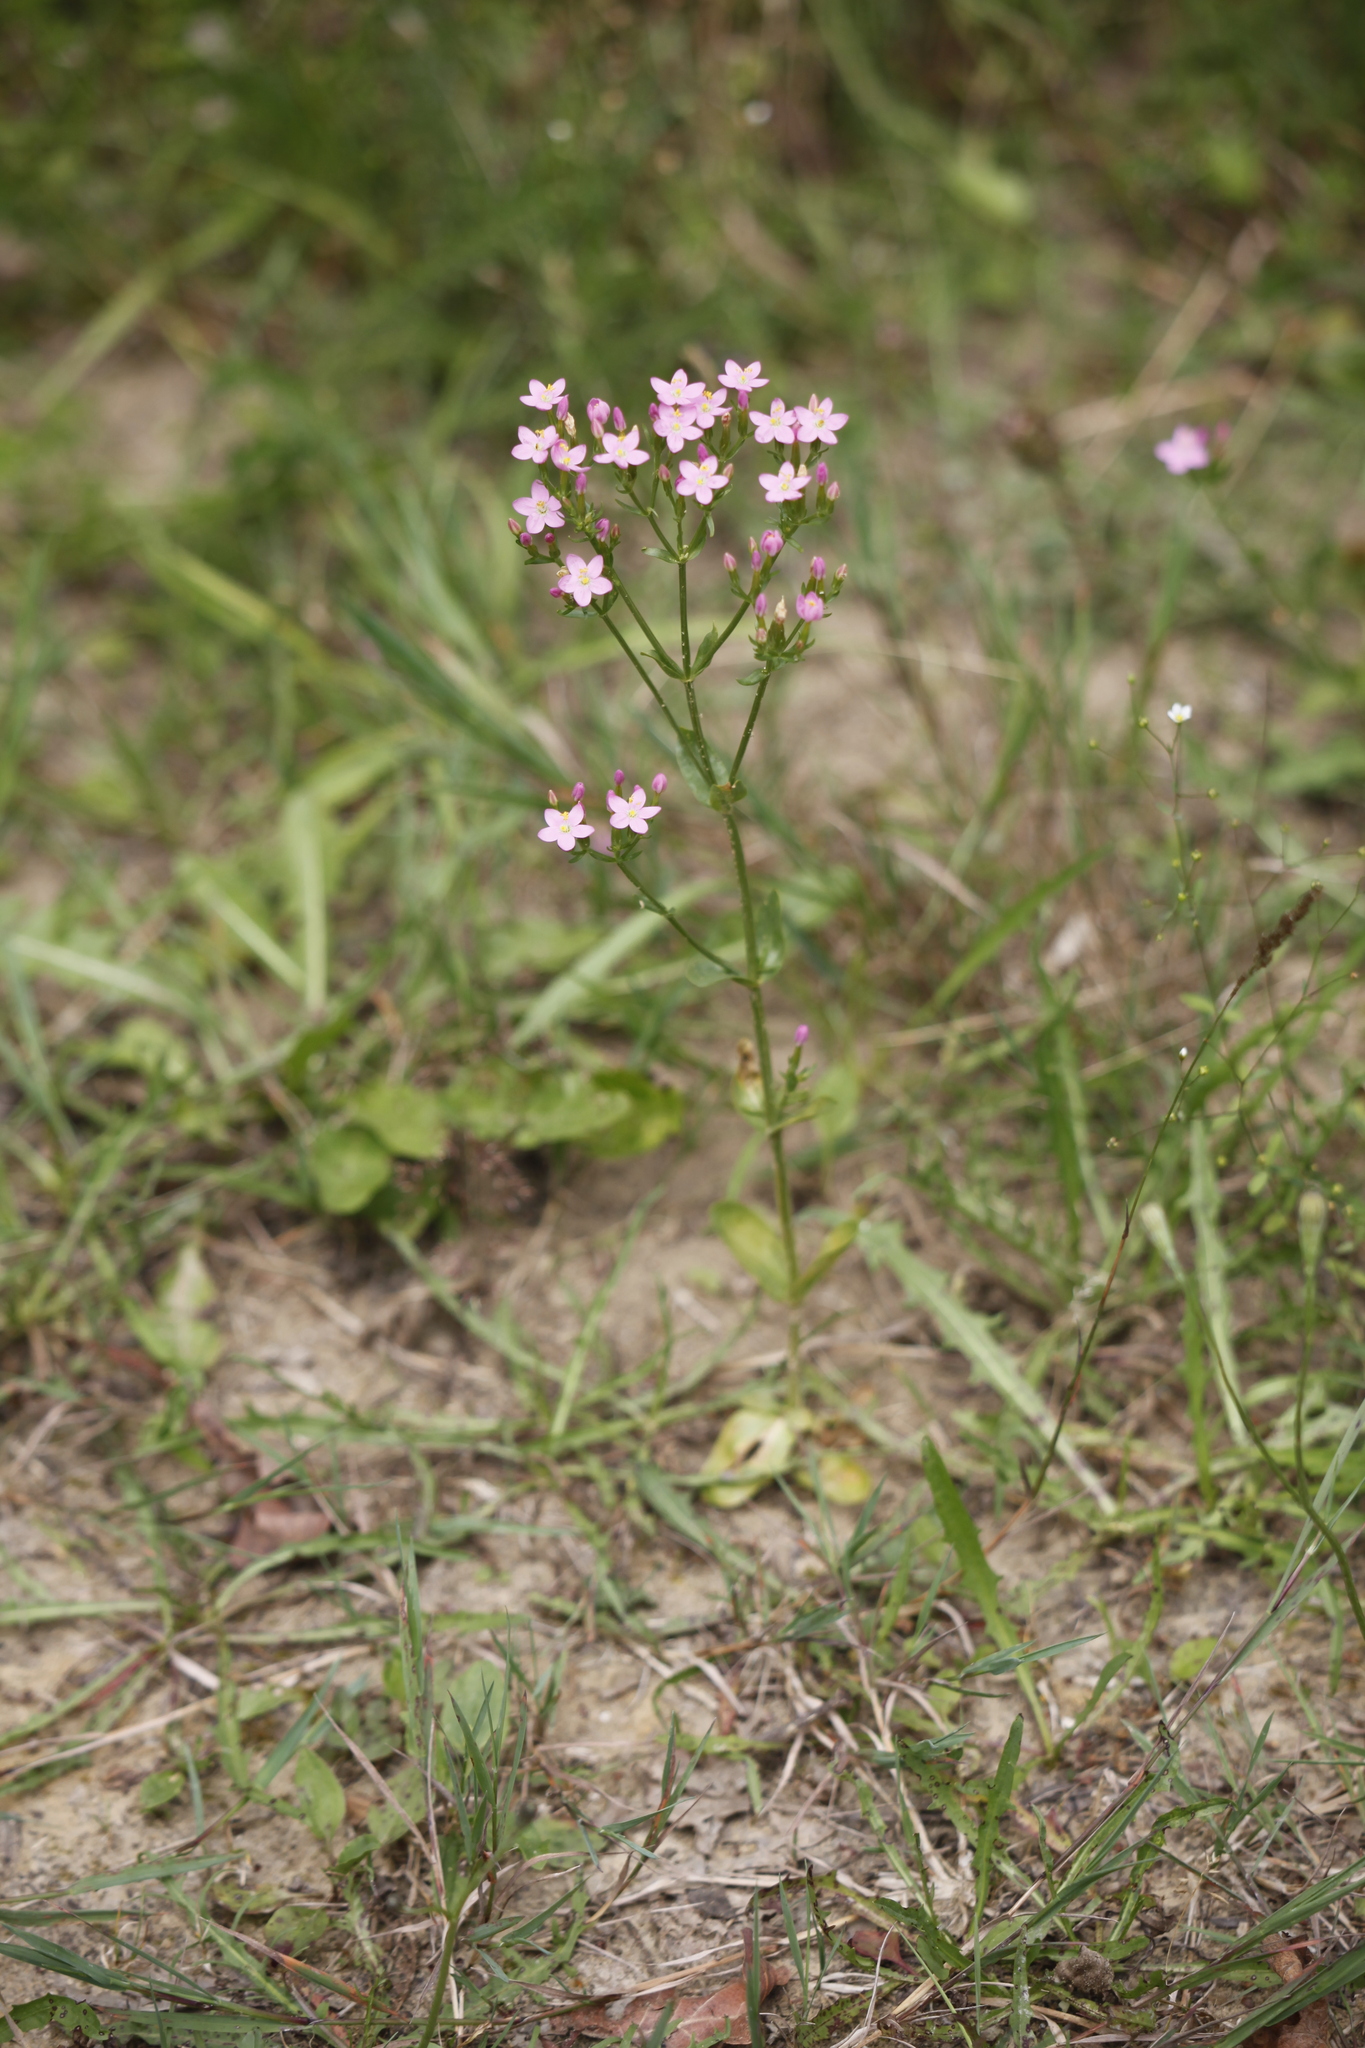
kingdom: Plantae
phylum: Tracheophyta
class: Magnoliopsida
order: Gentianales
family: Gentianaceae
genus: Centaurium
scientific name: Centaurium erythraea
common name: Common centaury
